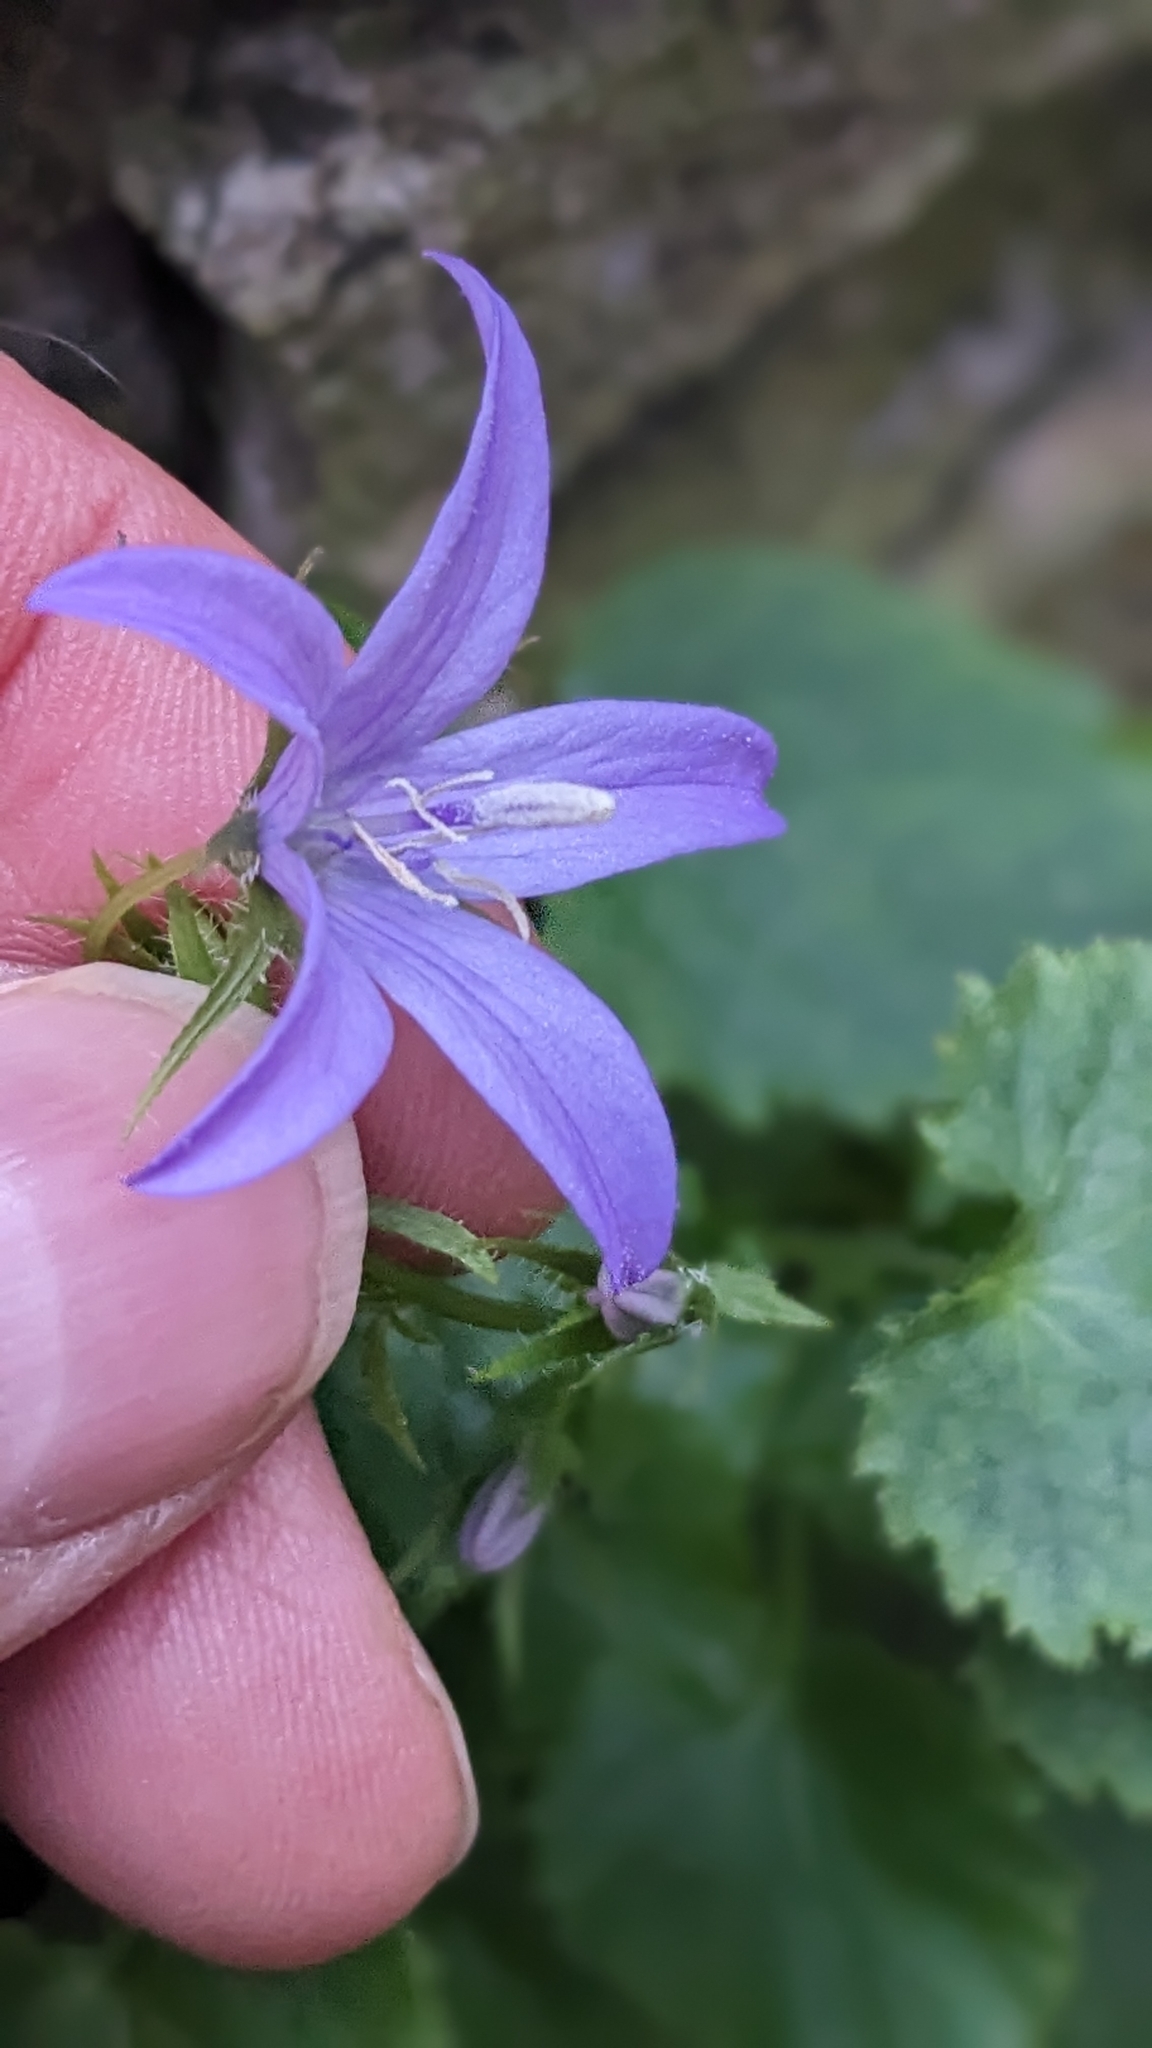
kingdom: Plantae
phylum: Tracheophyta
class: Magnoliopsida
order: Asterales
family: Campanulaceae
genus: Campanula
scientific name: Campanula poscharskyana
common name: Trailing bellflower
